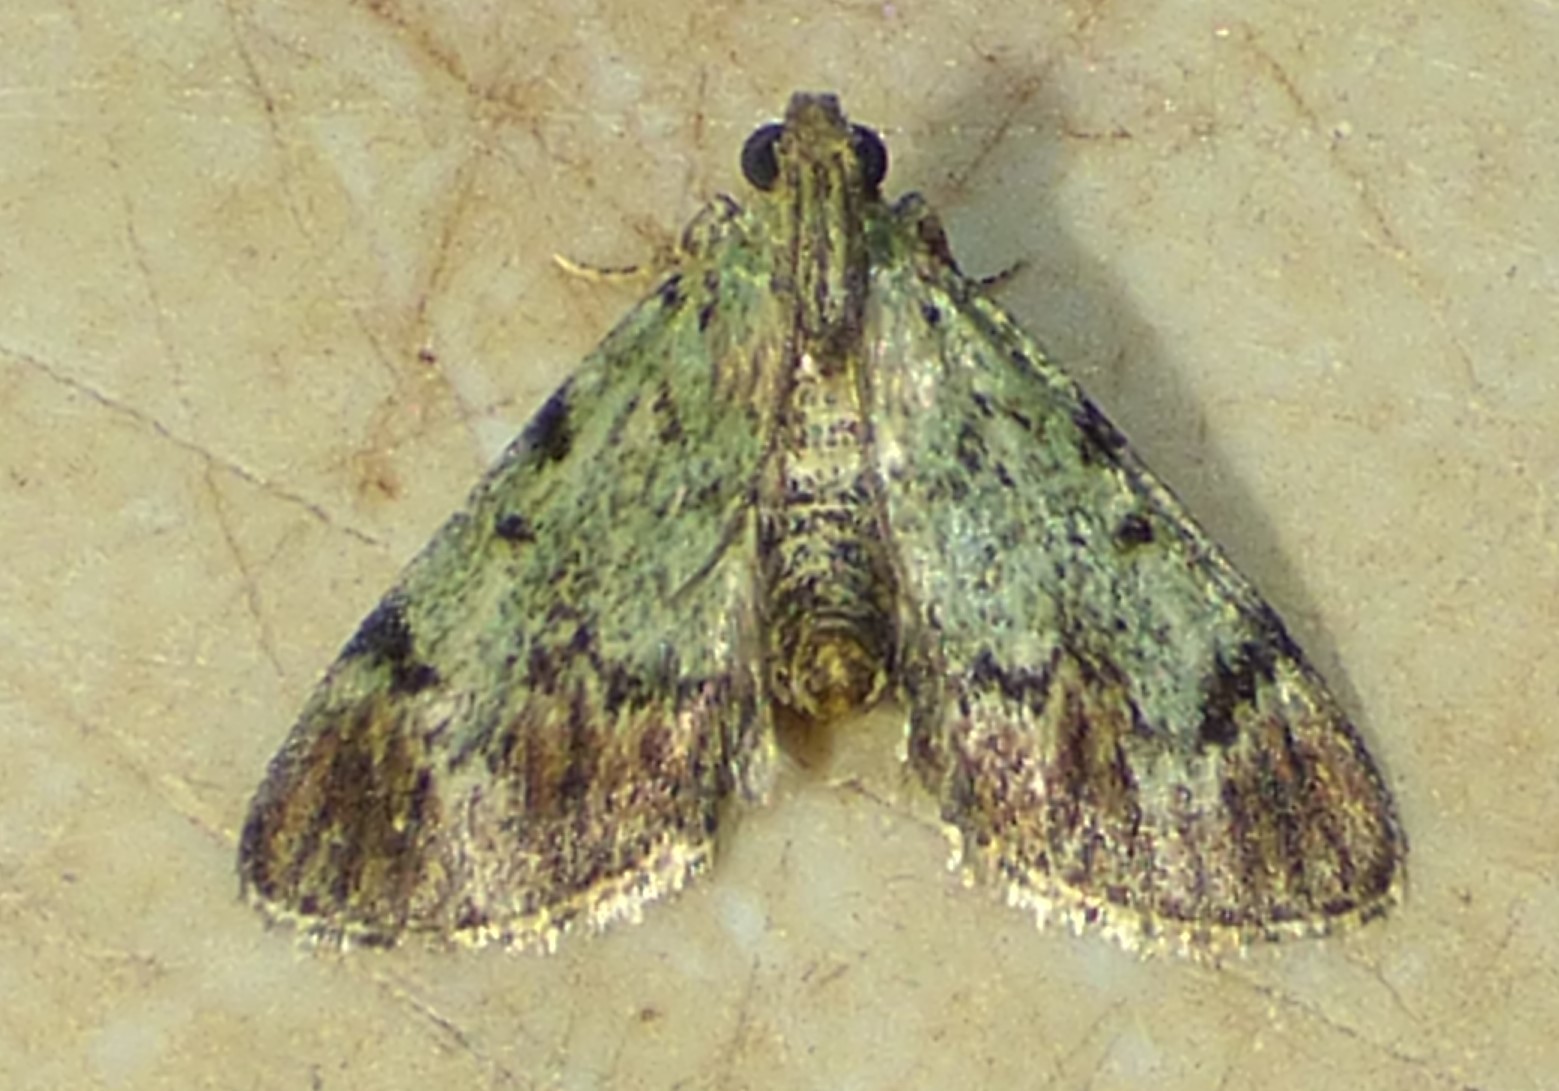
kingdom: Animalia
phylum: Arthropoda
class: Insecta
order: Lepidoptera
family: Pyralidae
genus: Epipaschia
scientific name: Epipaschia superatalis
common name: Dimorphic macalla moth
